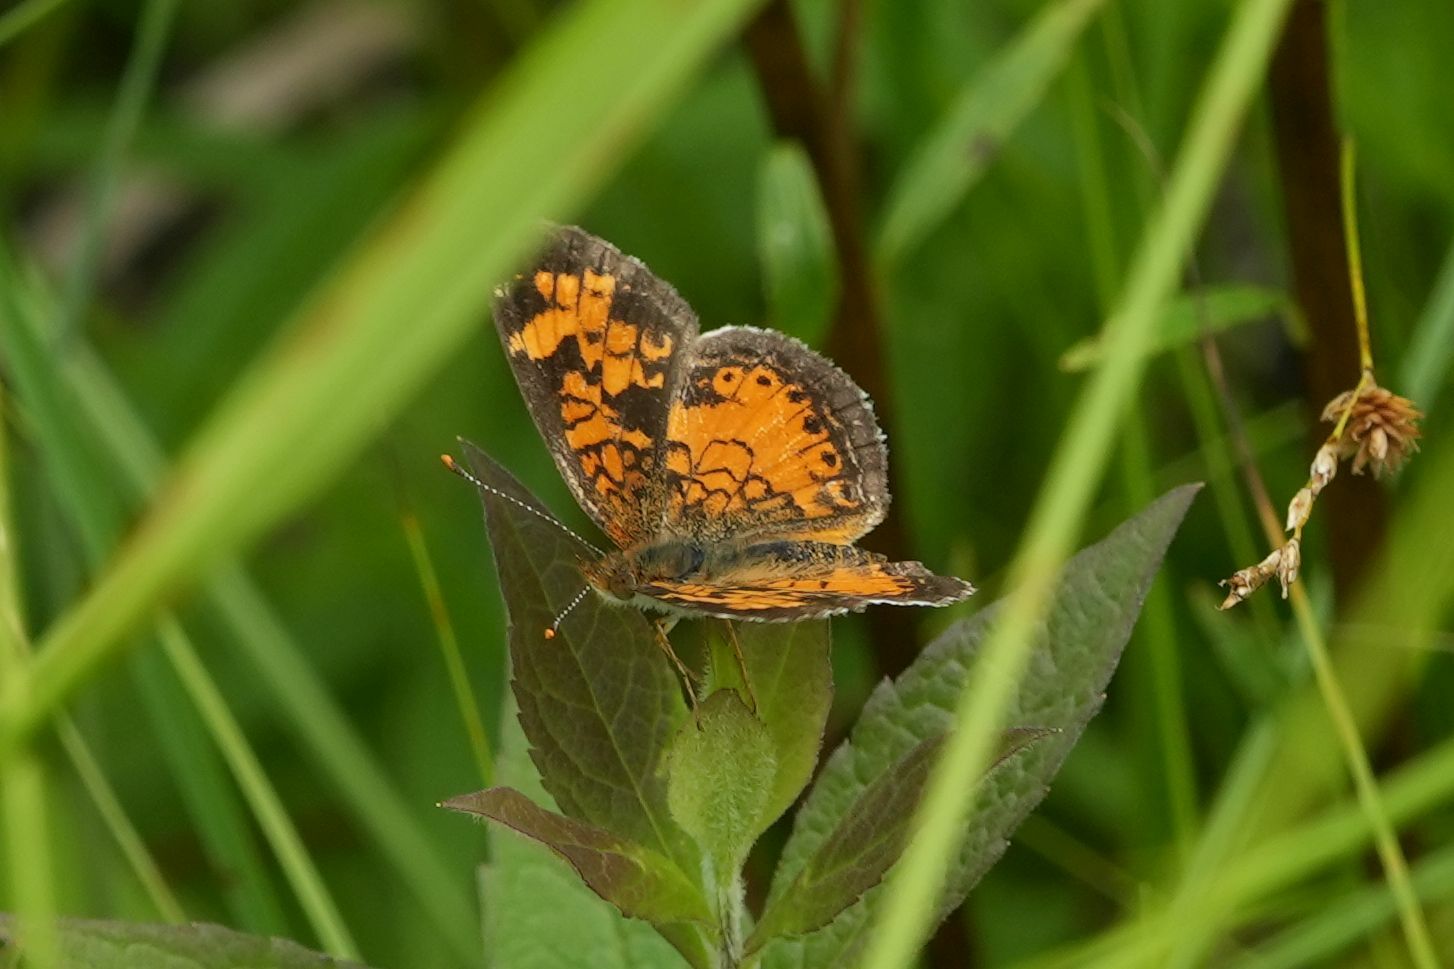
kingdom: Animalia
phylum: Arthropoda
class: Insecta
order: Lepidoptera
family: Nymphalidae
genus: Phyciodes
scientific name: Phyciodes tharos
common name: Pearl crescent
